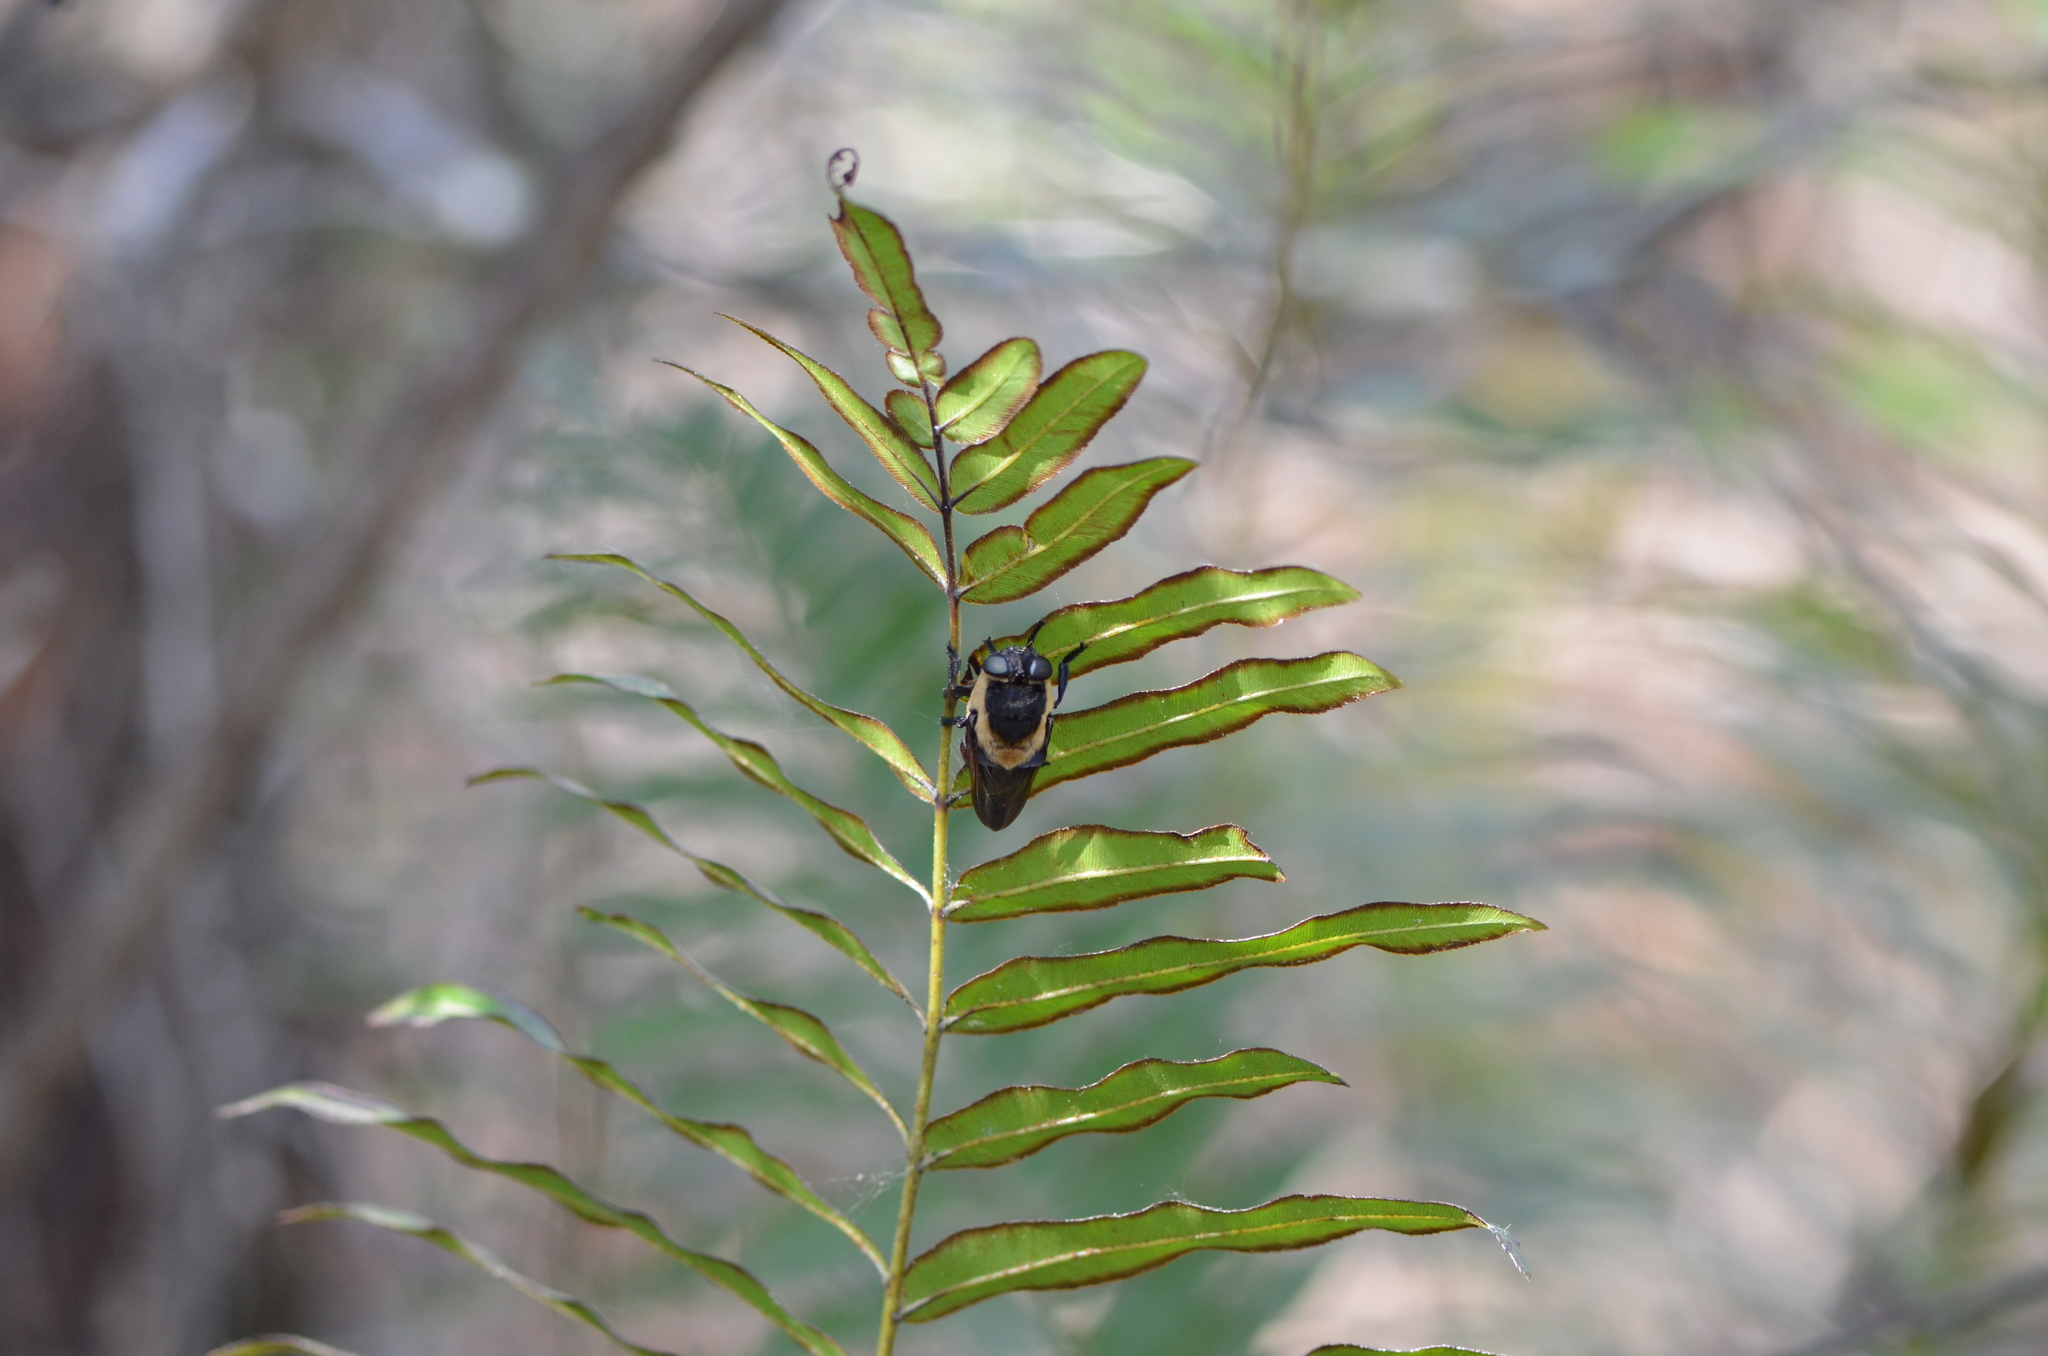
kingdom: Animalia
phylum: Arthropoda
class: Insecta
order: Diptera
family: Oestridae
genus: Cuterebra
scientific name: Cuterebra cuniculi
